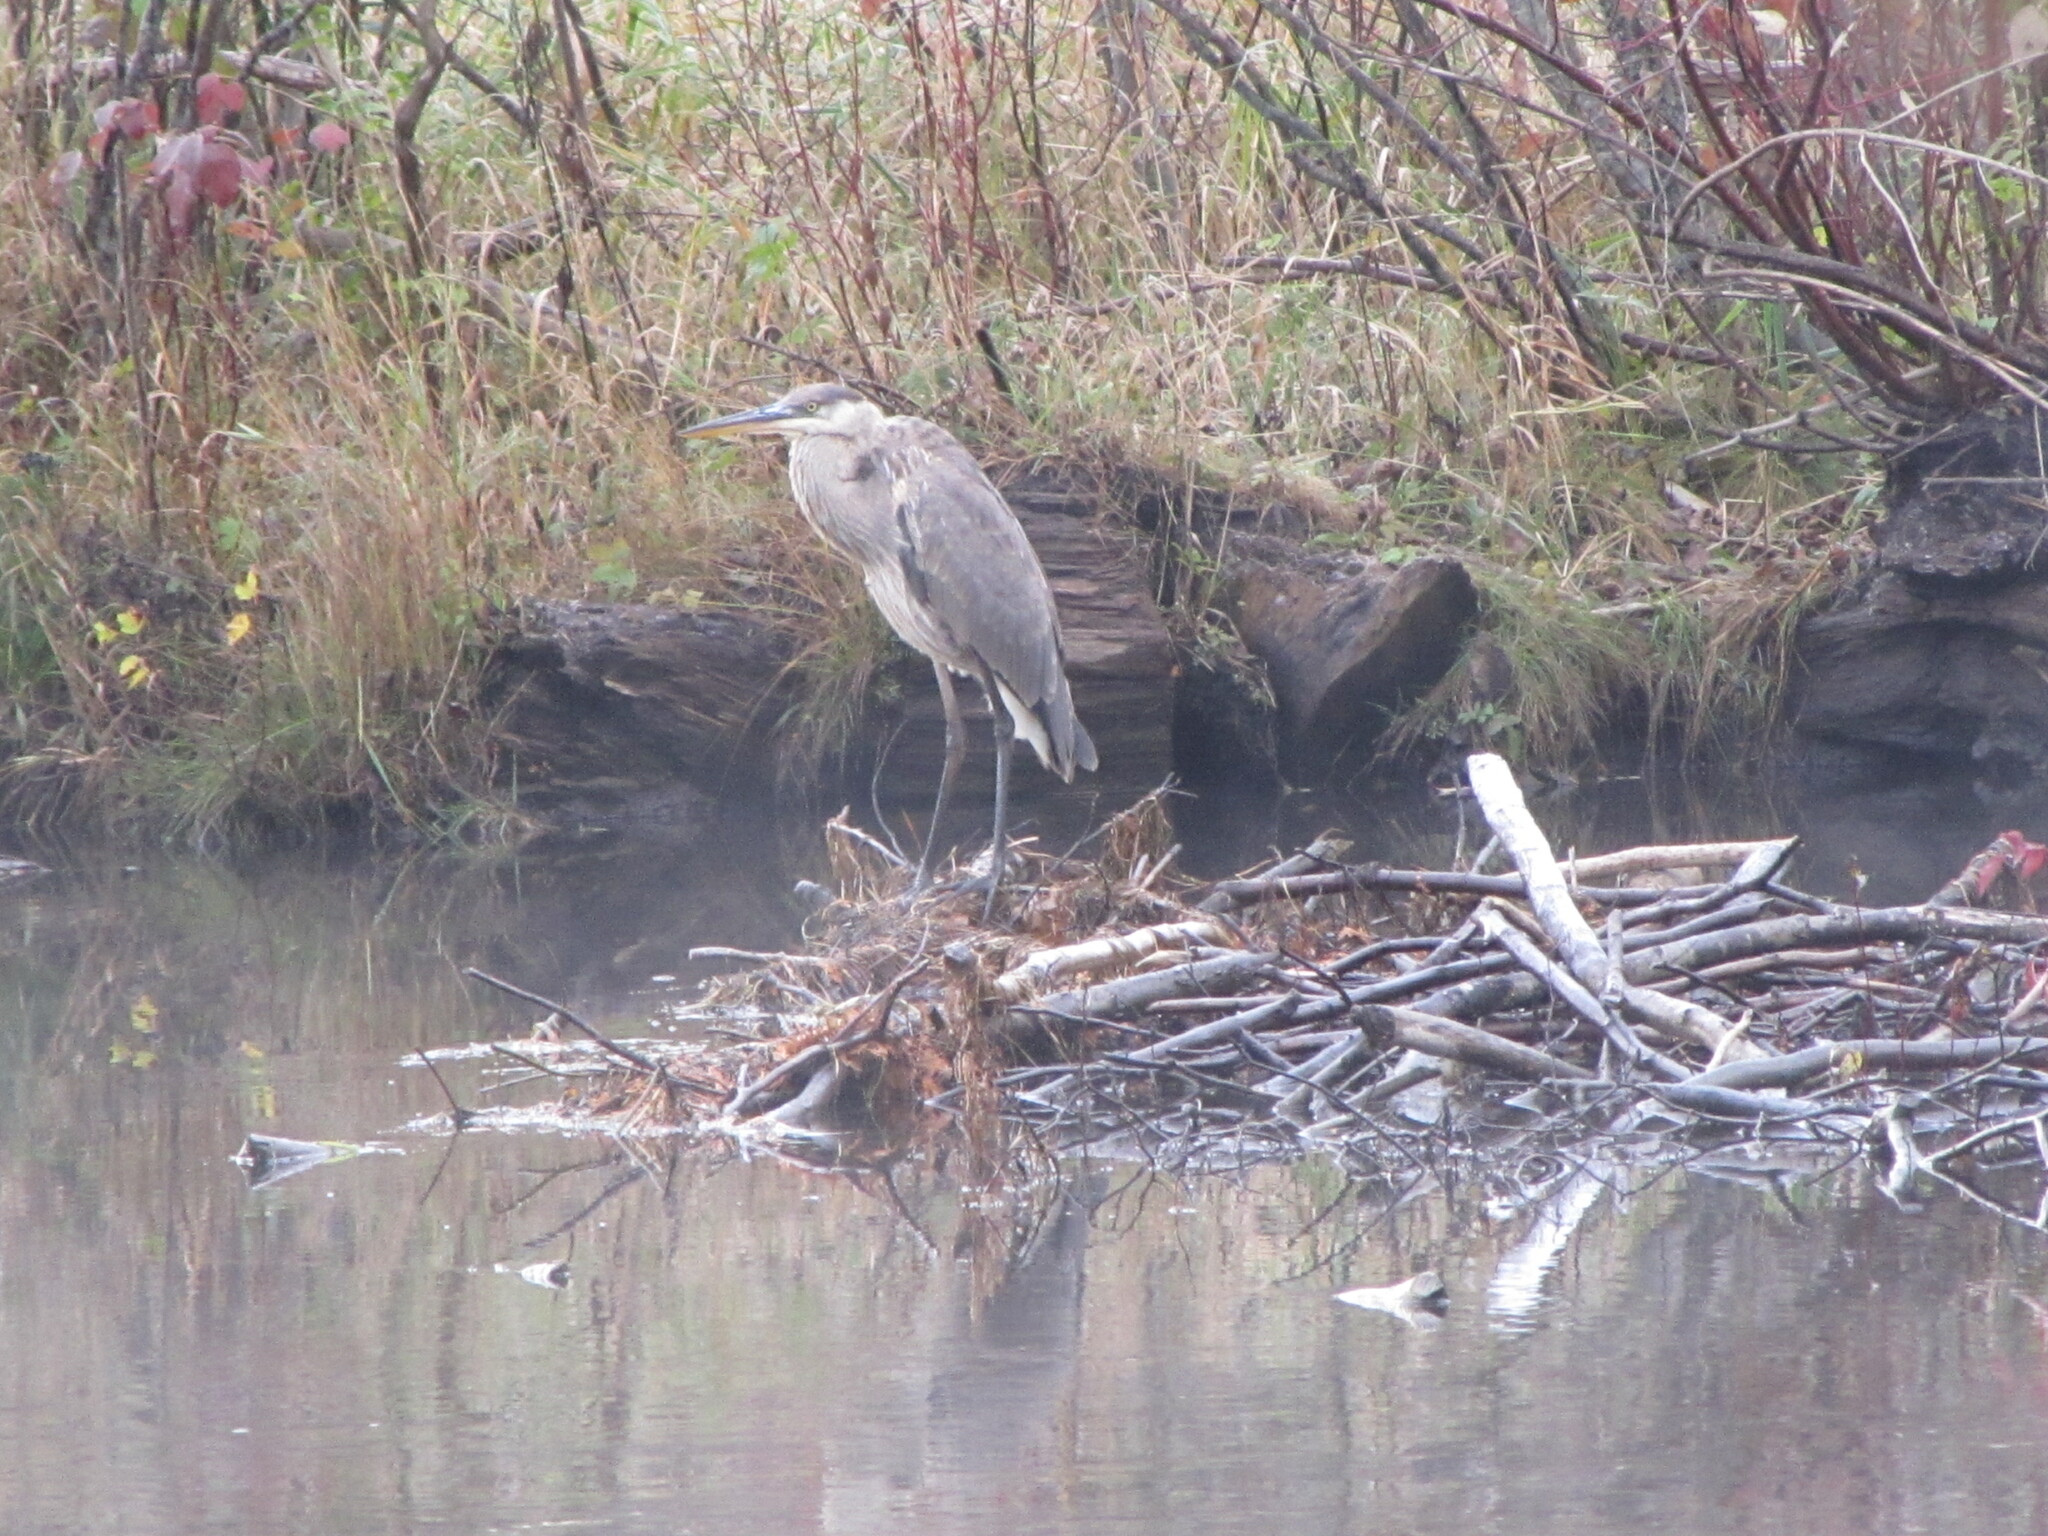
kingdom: Animalia
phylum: Chordata
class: Aves
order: Pelecaniformes
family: Ardeidae
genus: Ardea
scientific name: Ardea herodias
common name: Great blue heron
